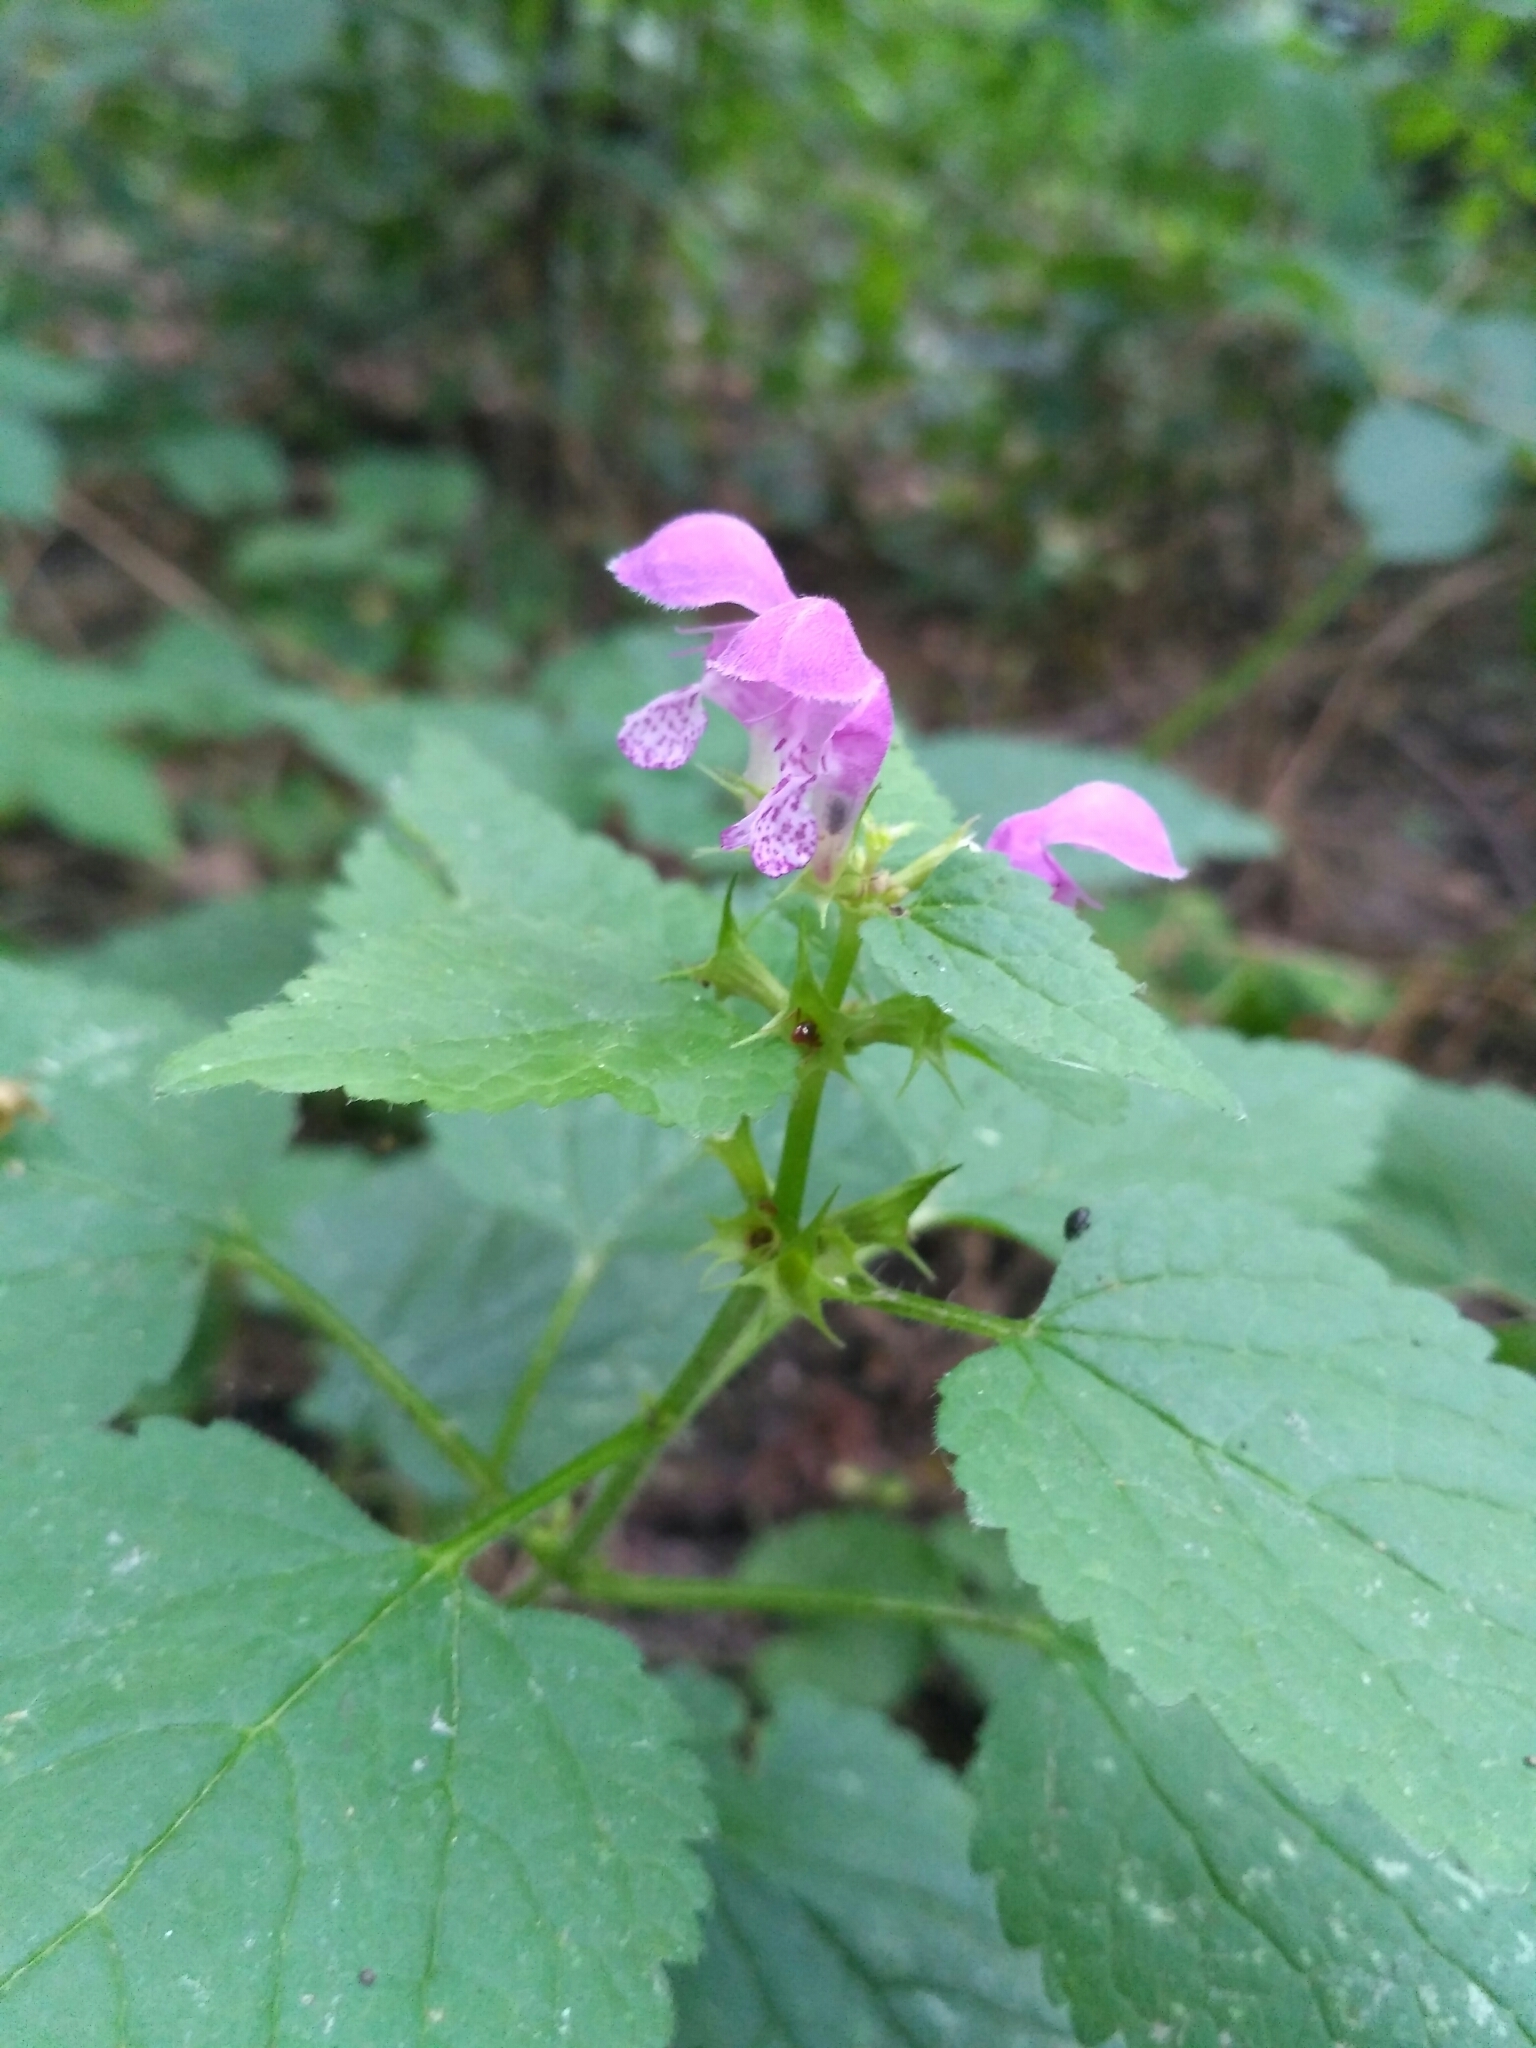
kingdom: Plantae
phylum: Tracheophyta
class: Magnoliopsida
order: Lamiales
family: Lamiaceae
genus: Lamium
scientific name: Lamium maculatum
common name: Spotted dead-nettle
